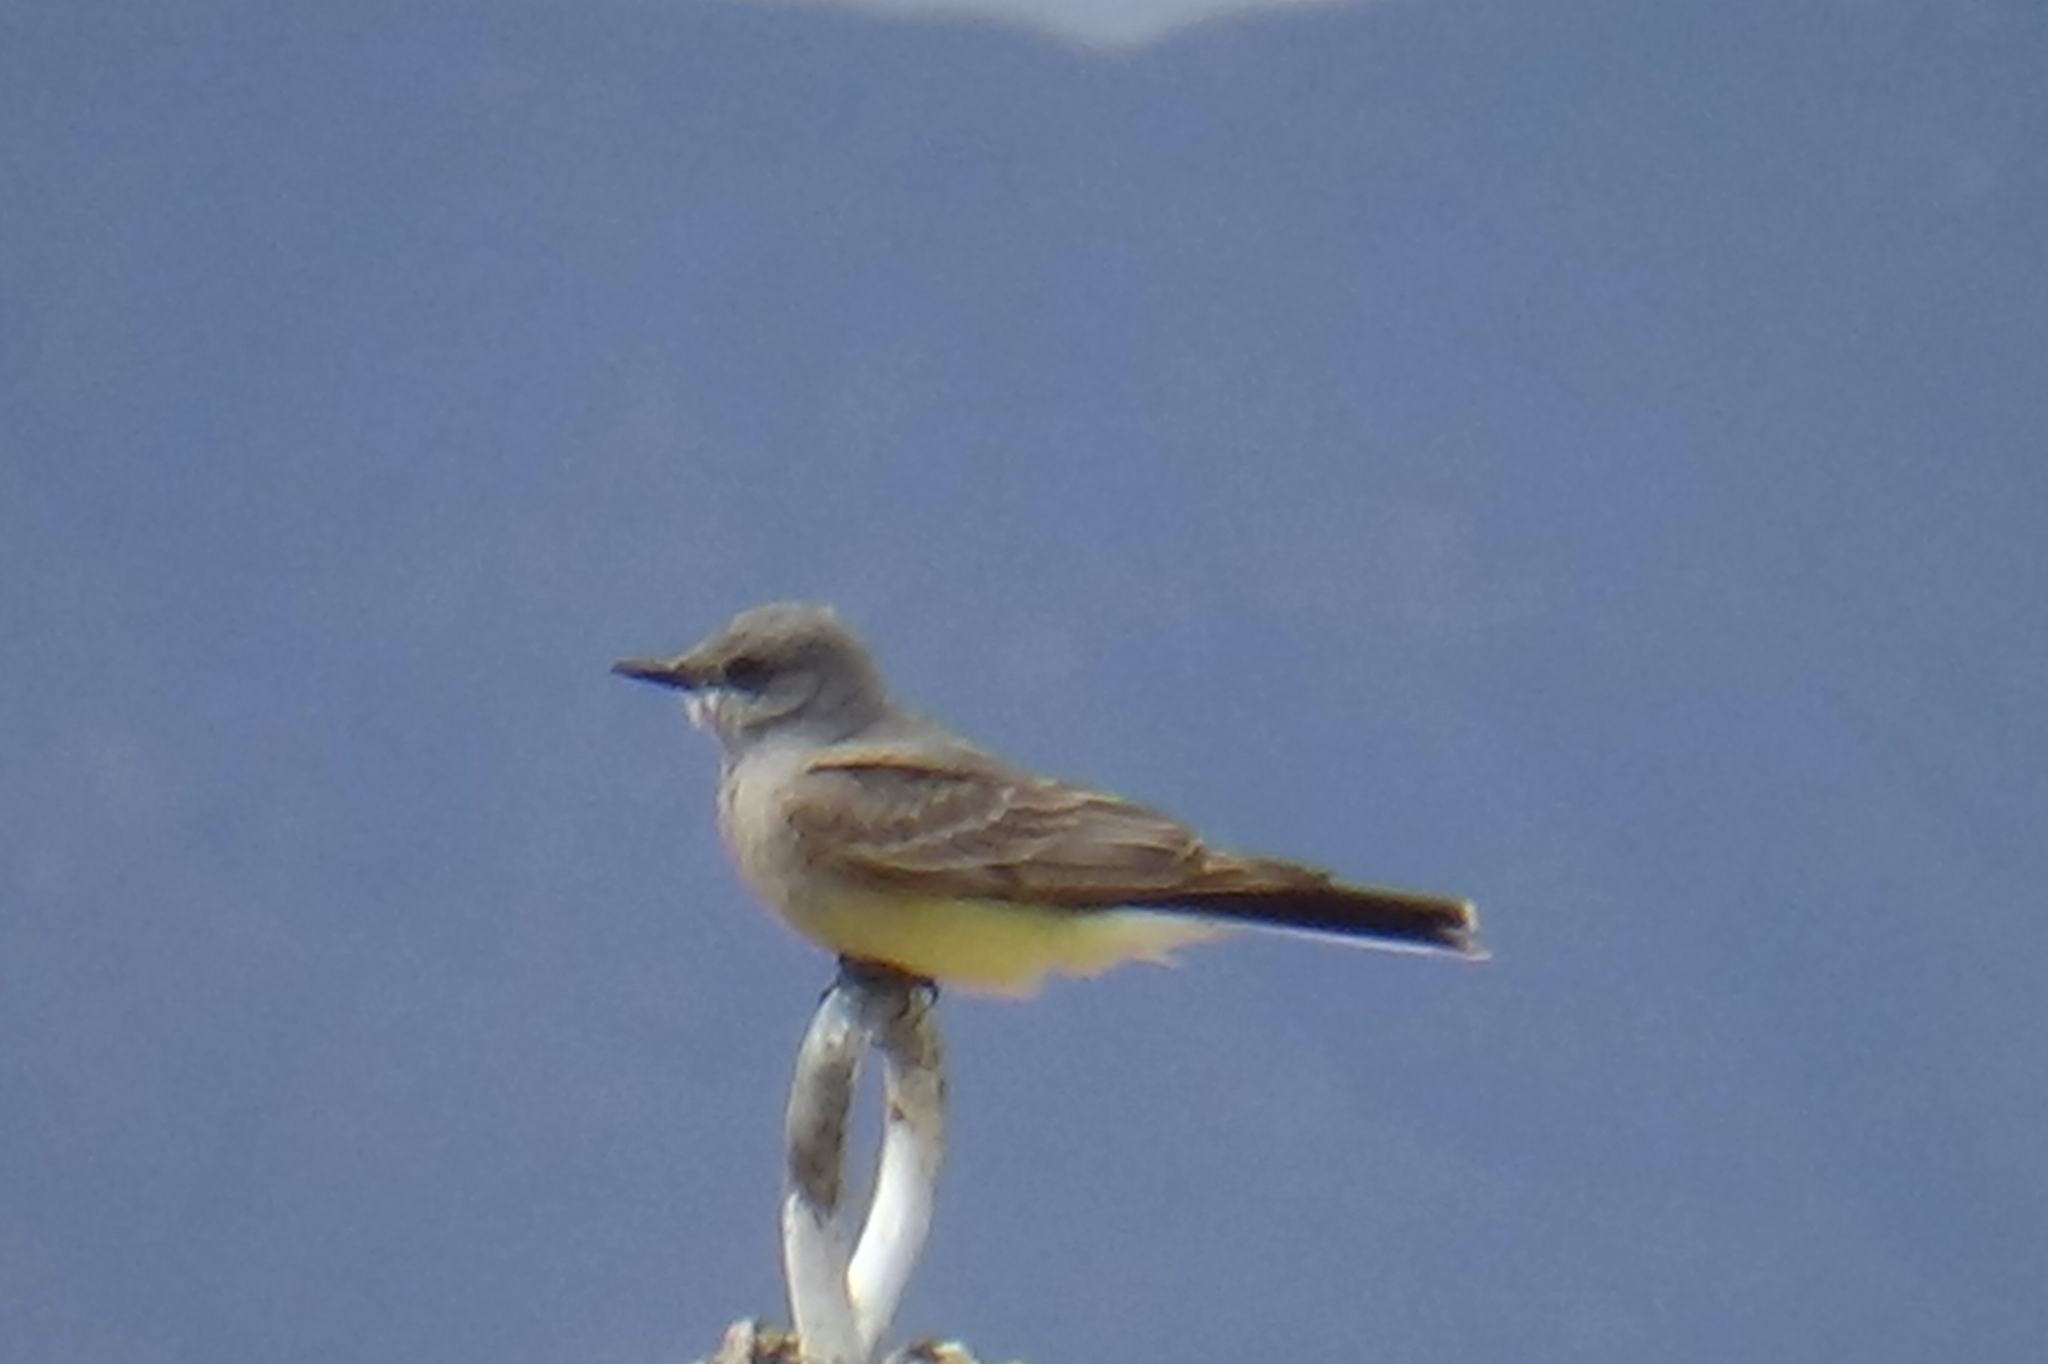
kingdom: Animalia
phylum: Chordata
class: Aves
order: Passeriformes
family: Tyrannidae
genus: Tyrannus
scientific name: Tyrannus verticalis
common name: Western kingbird
